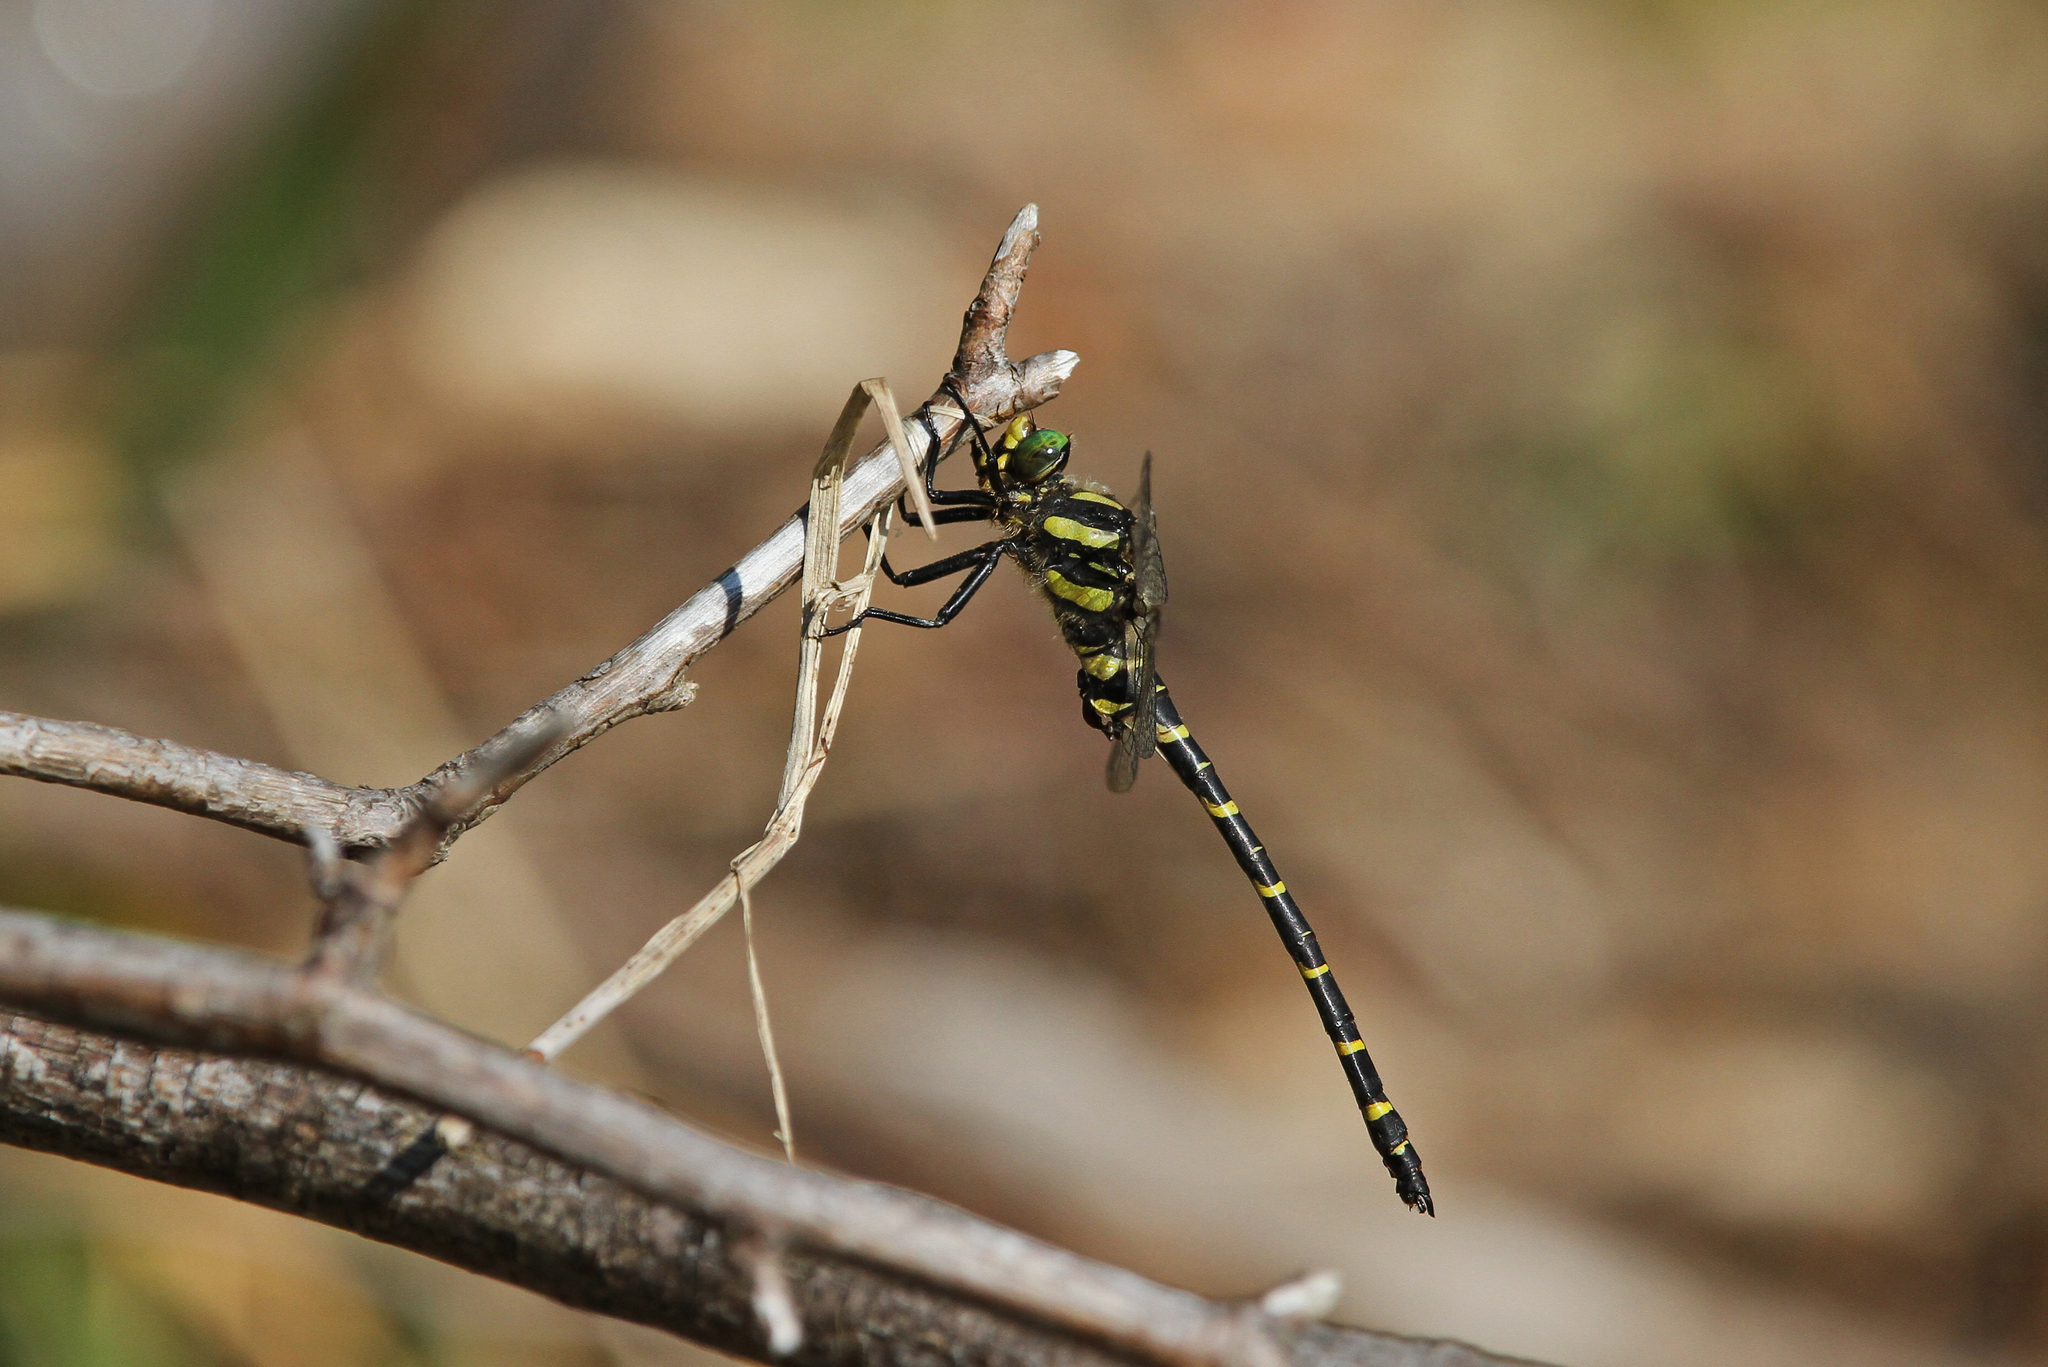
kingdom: Animalia
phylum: Arthropoda
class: Insecta
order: Odonata
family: Cordulegastridae
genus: Cordulegaster
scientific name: Cordulegaster boltonii
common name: Golden-ringed dragonfly
